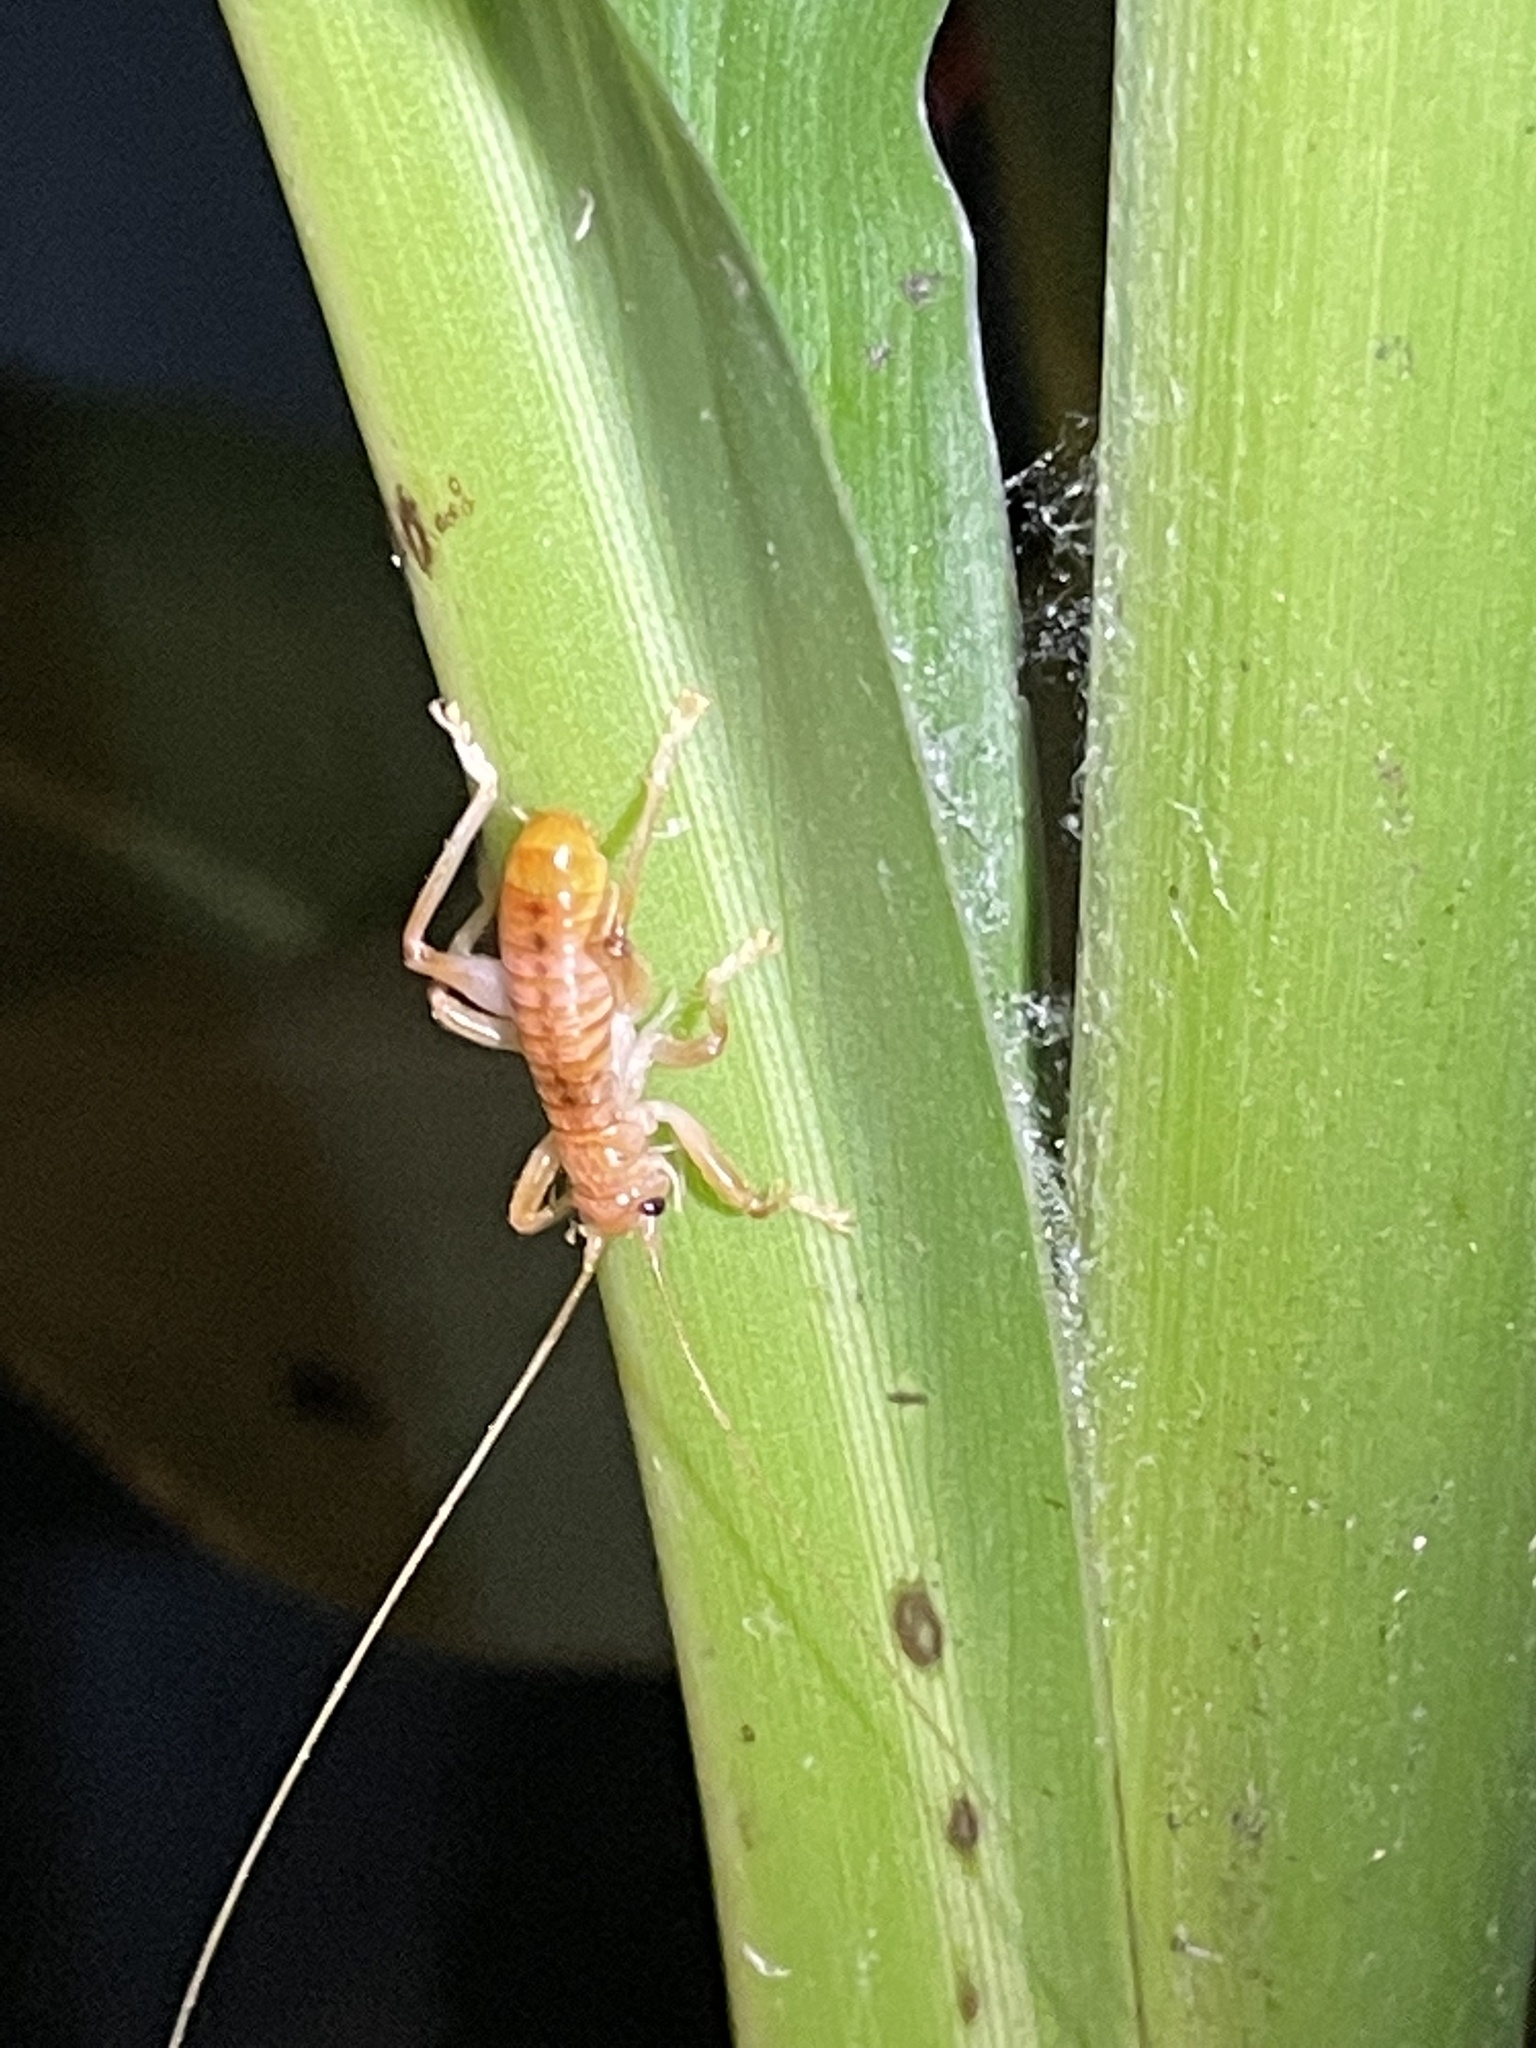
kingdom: Animalia
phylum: Arthropoda
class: Insecta
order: Orthoptera
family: Gryllacrididae
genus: Camptonotus
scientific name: Camptonotus carolinensis
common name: Carolina leaf-roller
